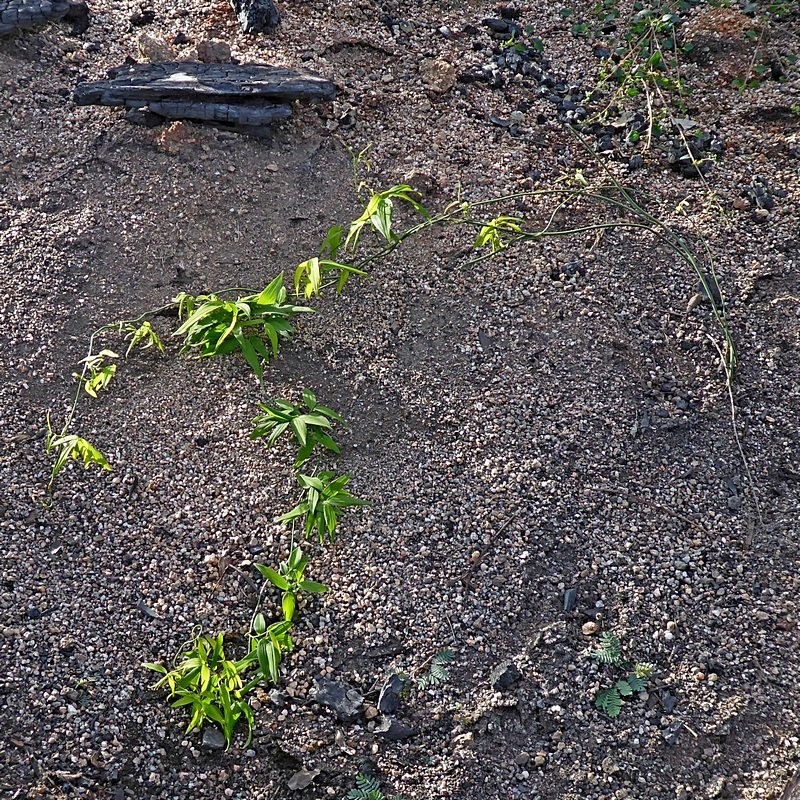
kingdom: Plantae
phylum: Tracheophyta
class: Liliopsida
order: Asparagales
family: Asparagaceae
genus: Eustrephus
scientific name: Eustrephus latifolius
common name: Orangevine
